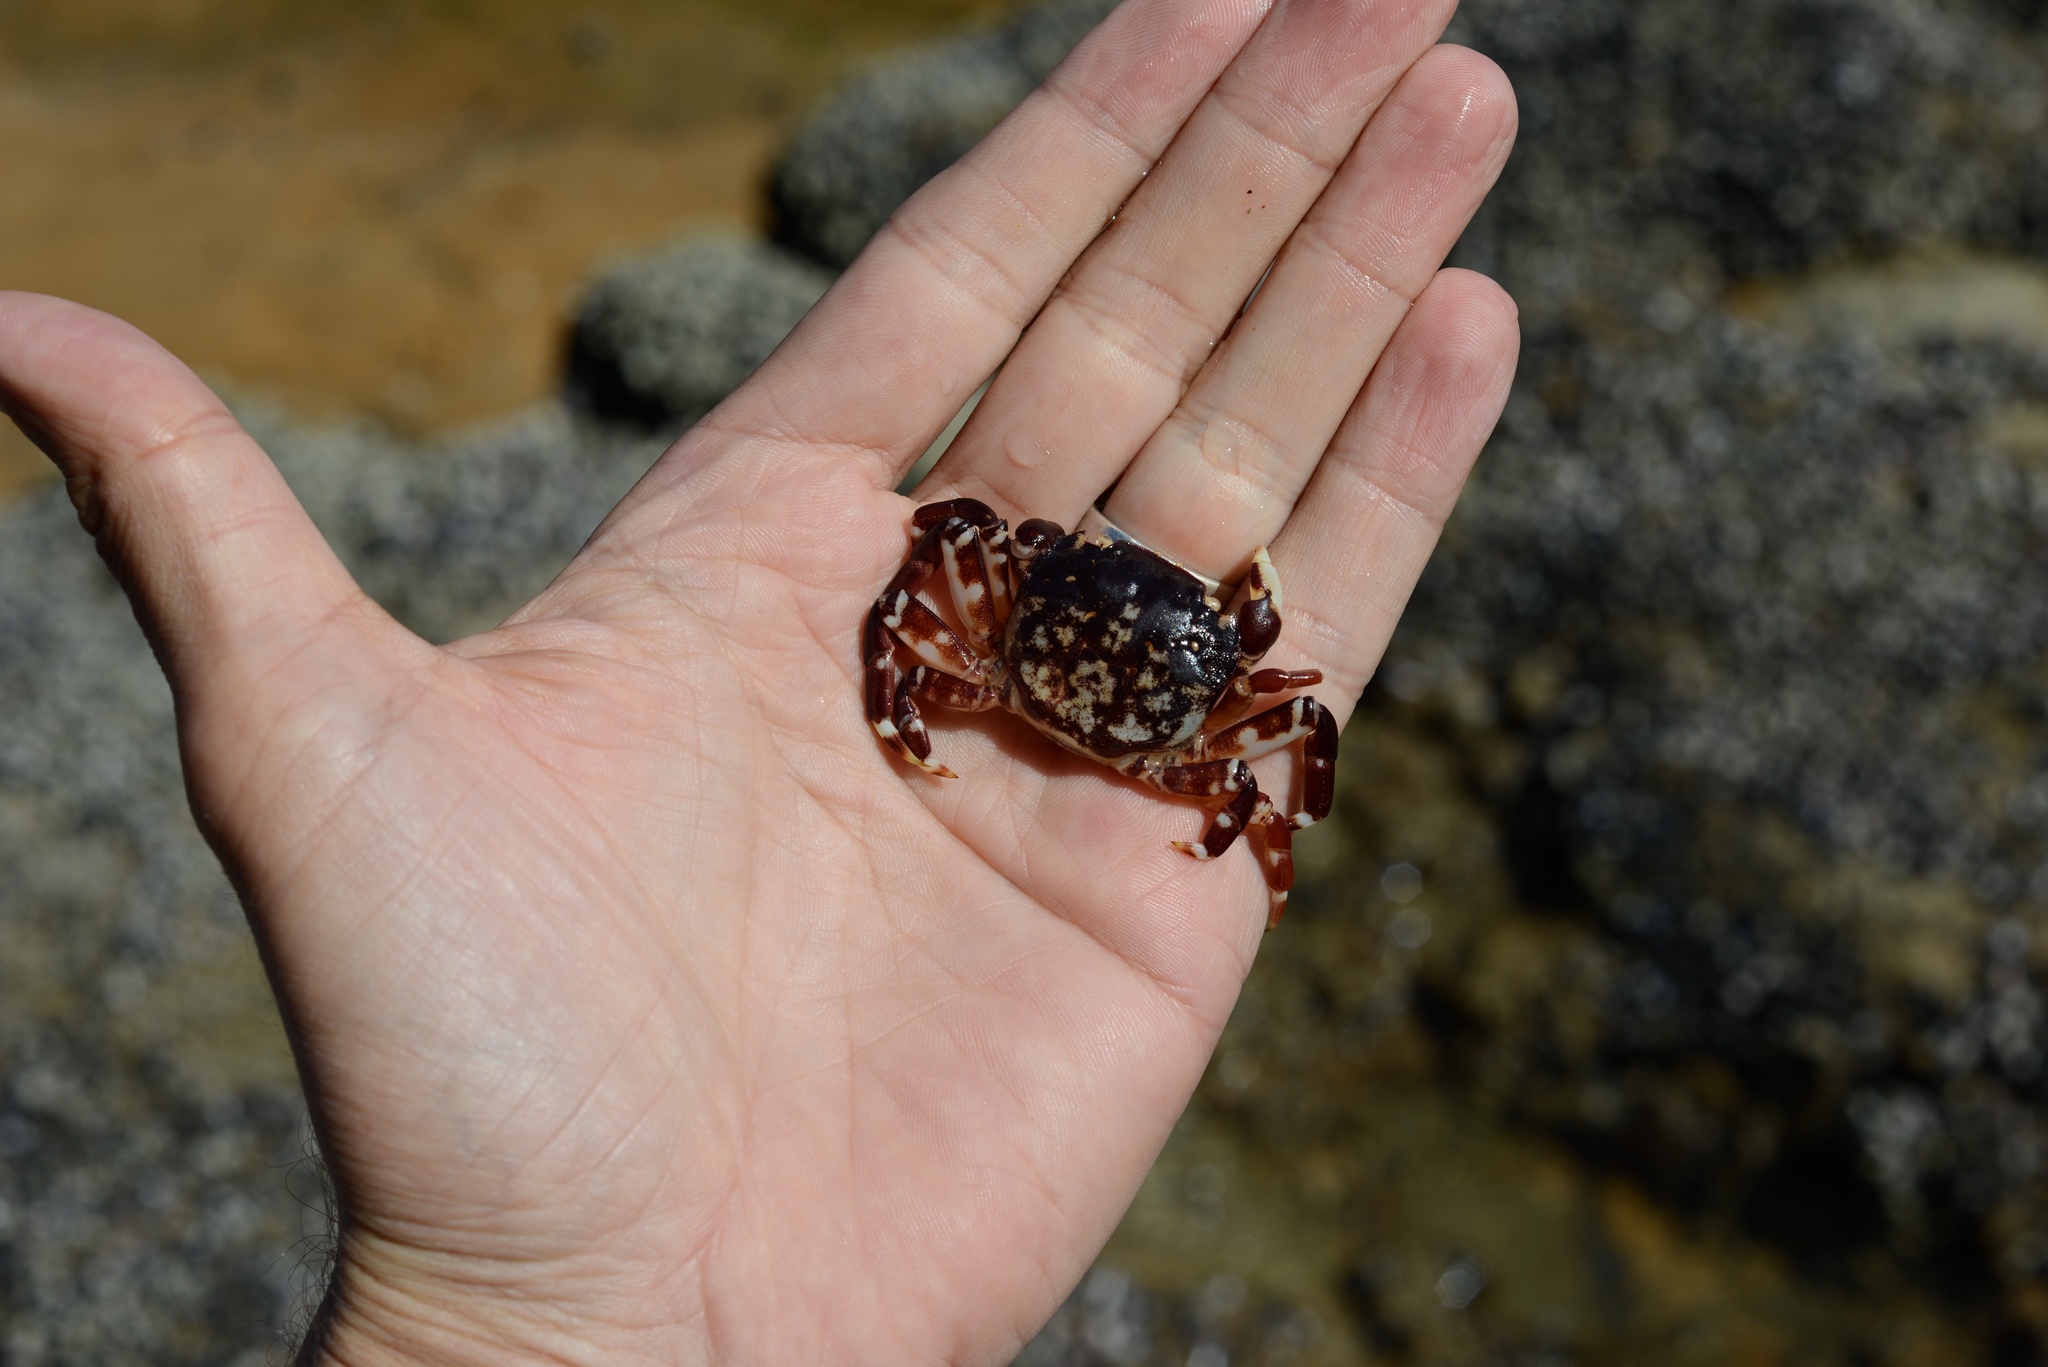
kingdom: Animalia
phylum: Arthropoda
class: Malacostraca
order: Decapoda
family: Varunidae
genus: Hemigrapsus
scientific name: Hemigrapsus sexdentatus
